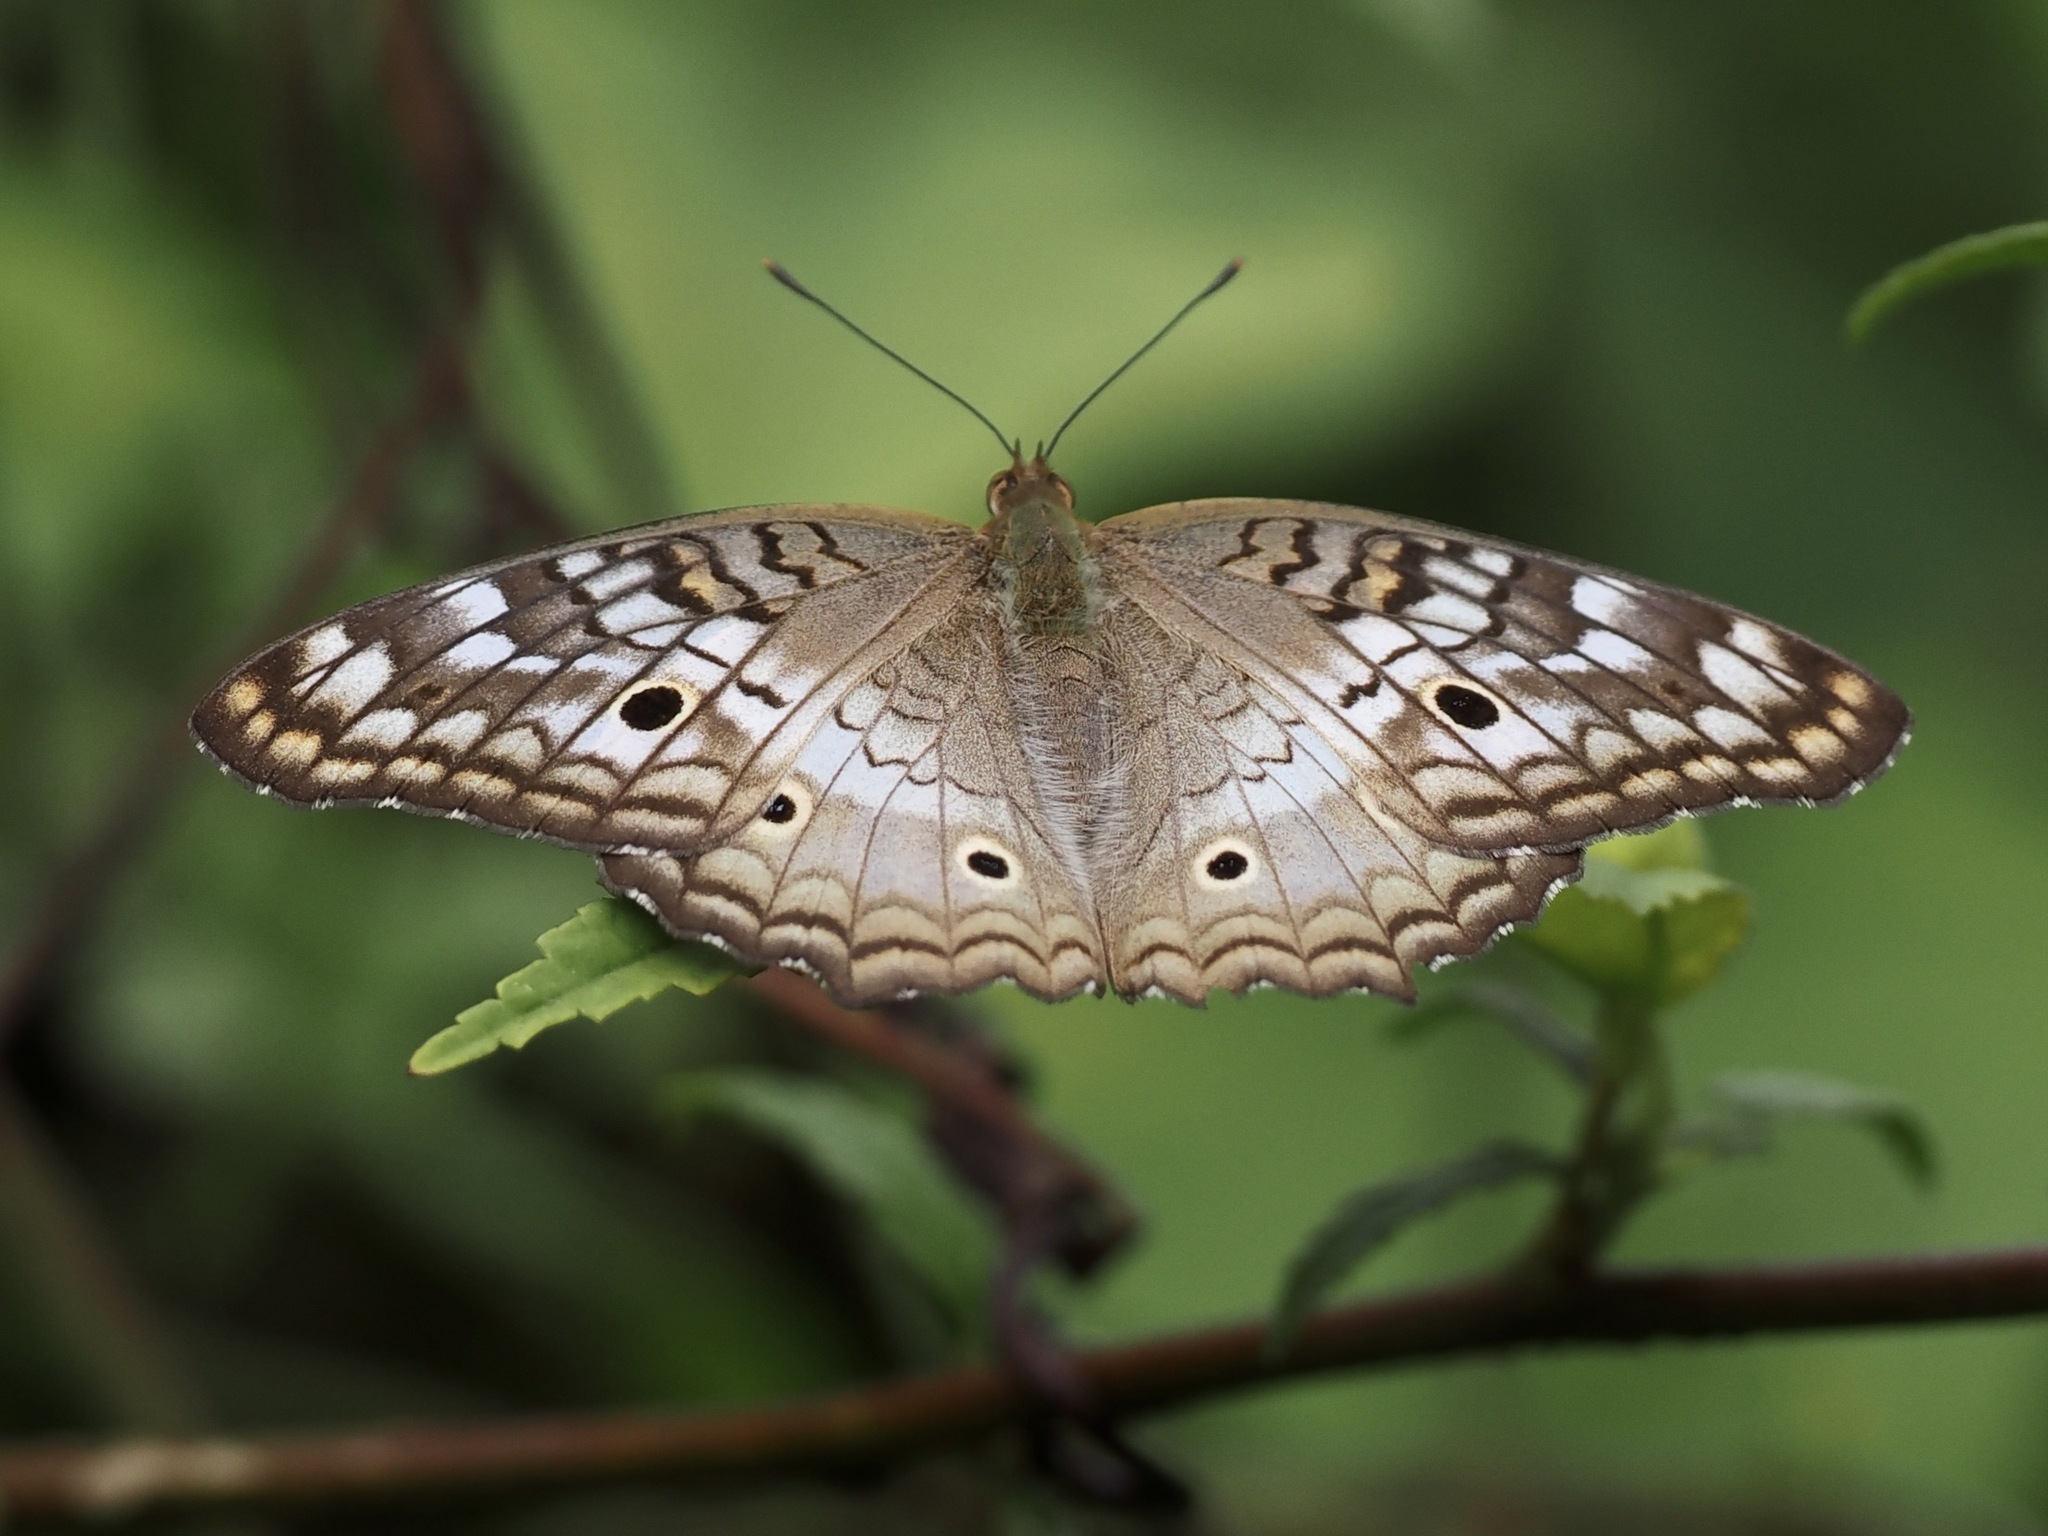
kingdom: Animalia
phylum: Arthropoda
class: Insecta
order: Lepidoptera
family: Nymphalidae
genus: Anartia
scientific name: Anartia jatrophae
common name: White peacock
